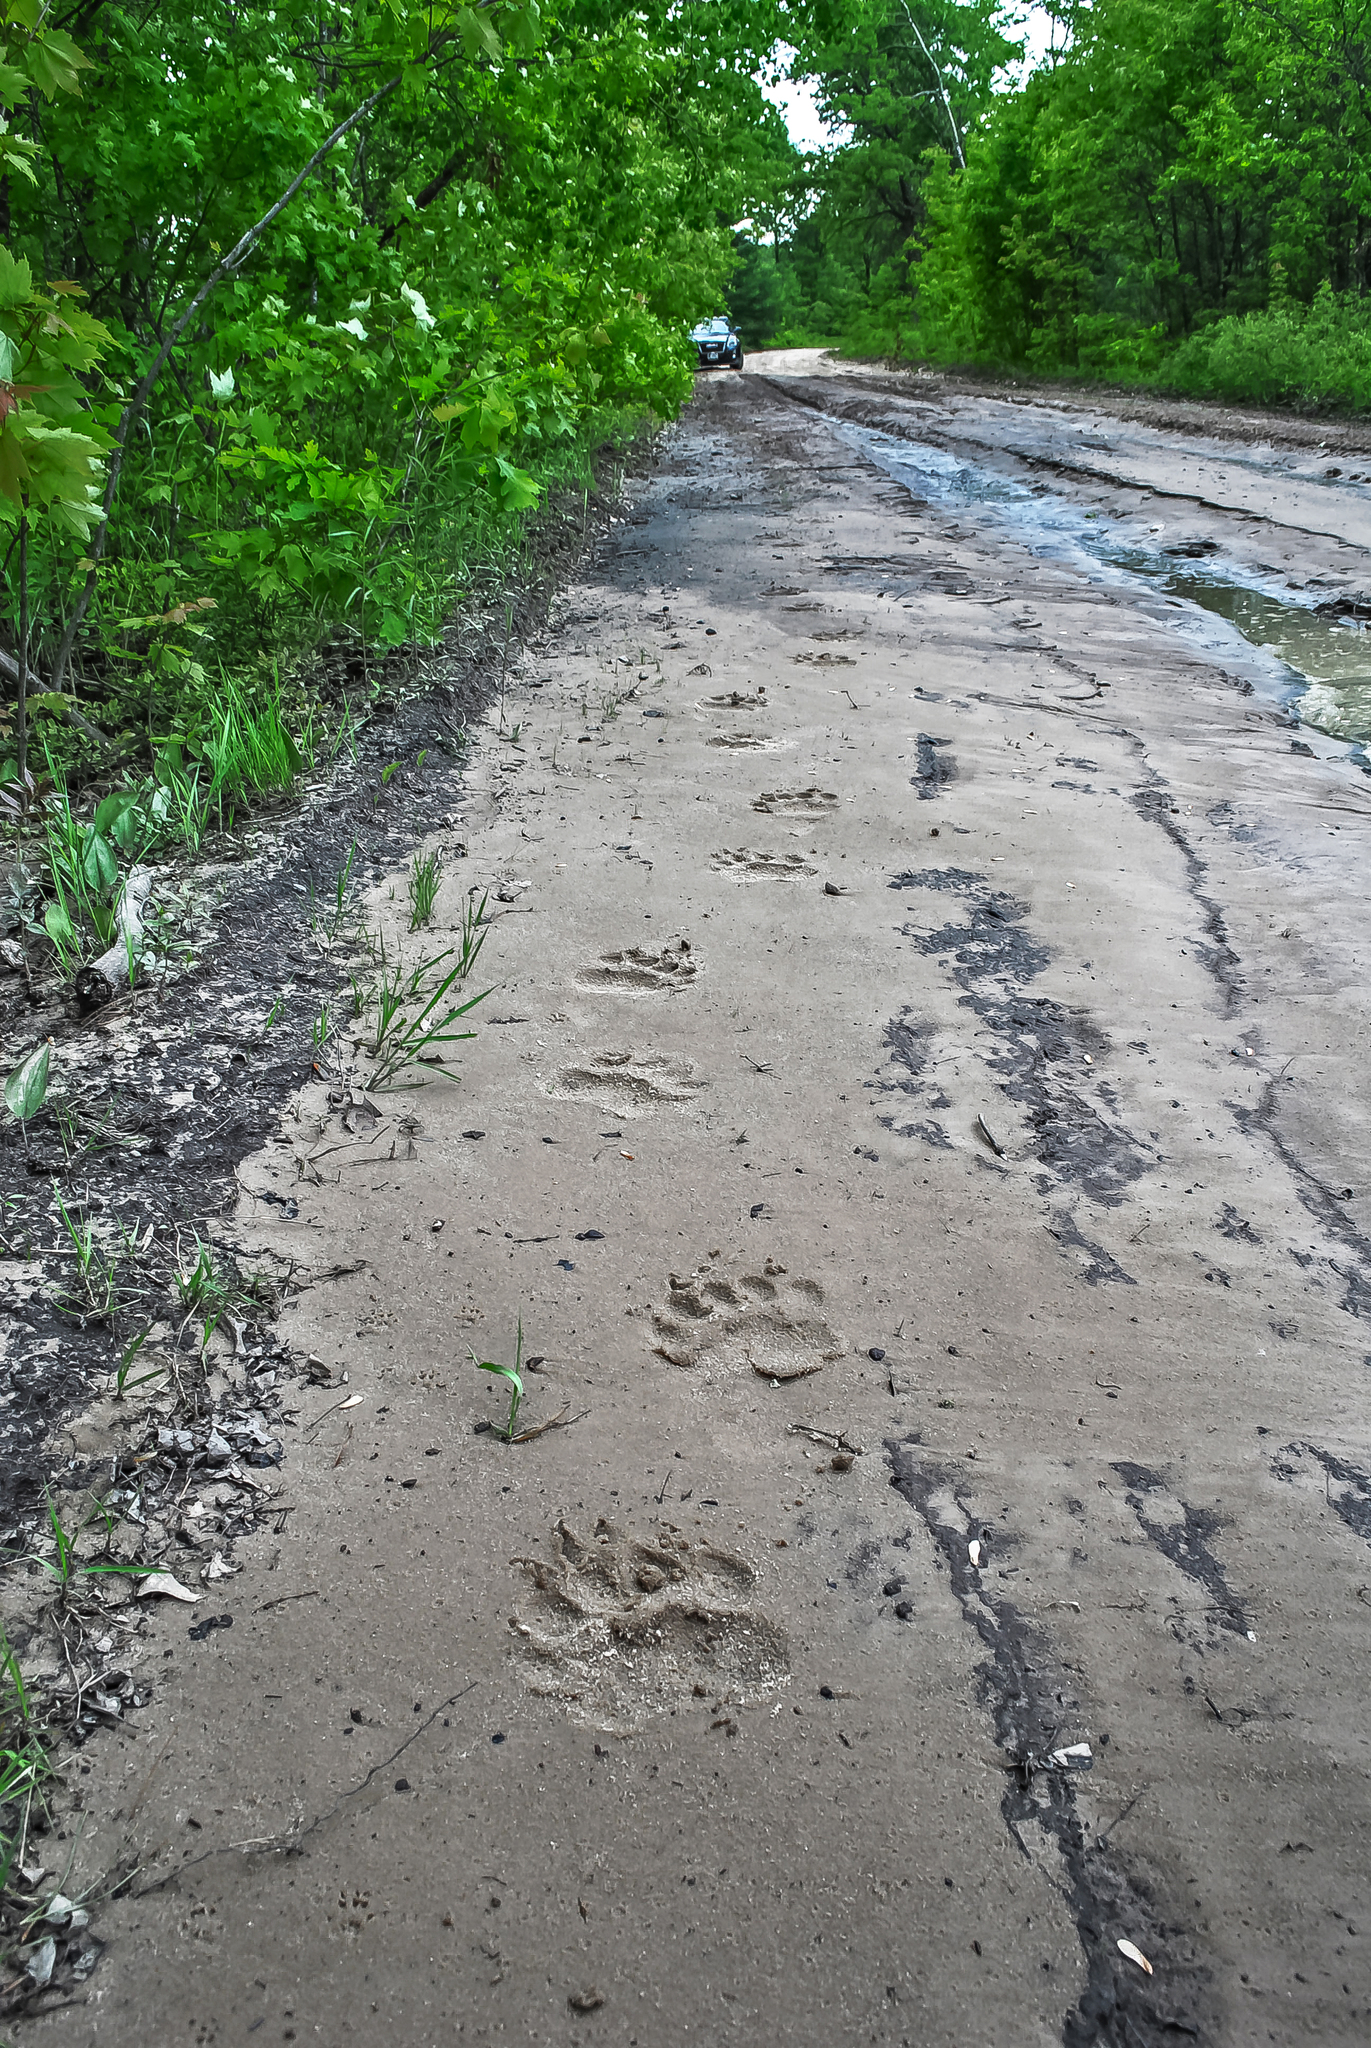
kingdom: Animalia
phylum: Chordata
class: Mammalia
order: Carnivora
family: Ursidae
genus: Ursus
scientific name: Ursus americanus
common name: American black bear
